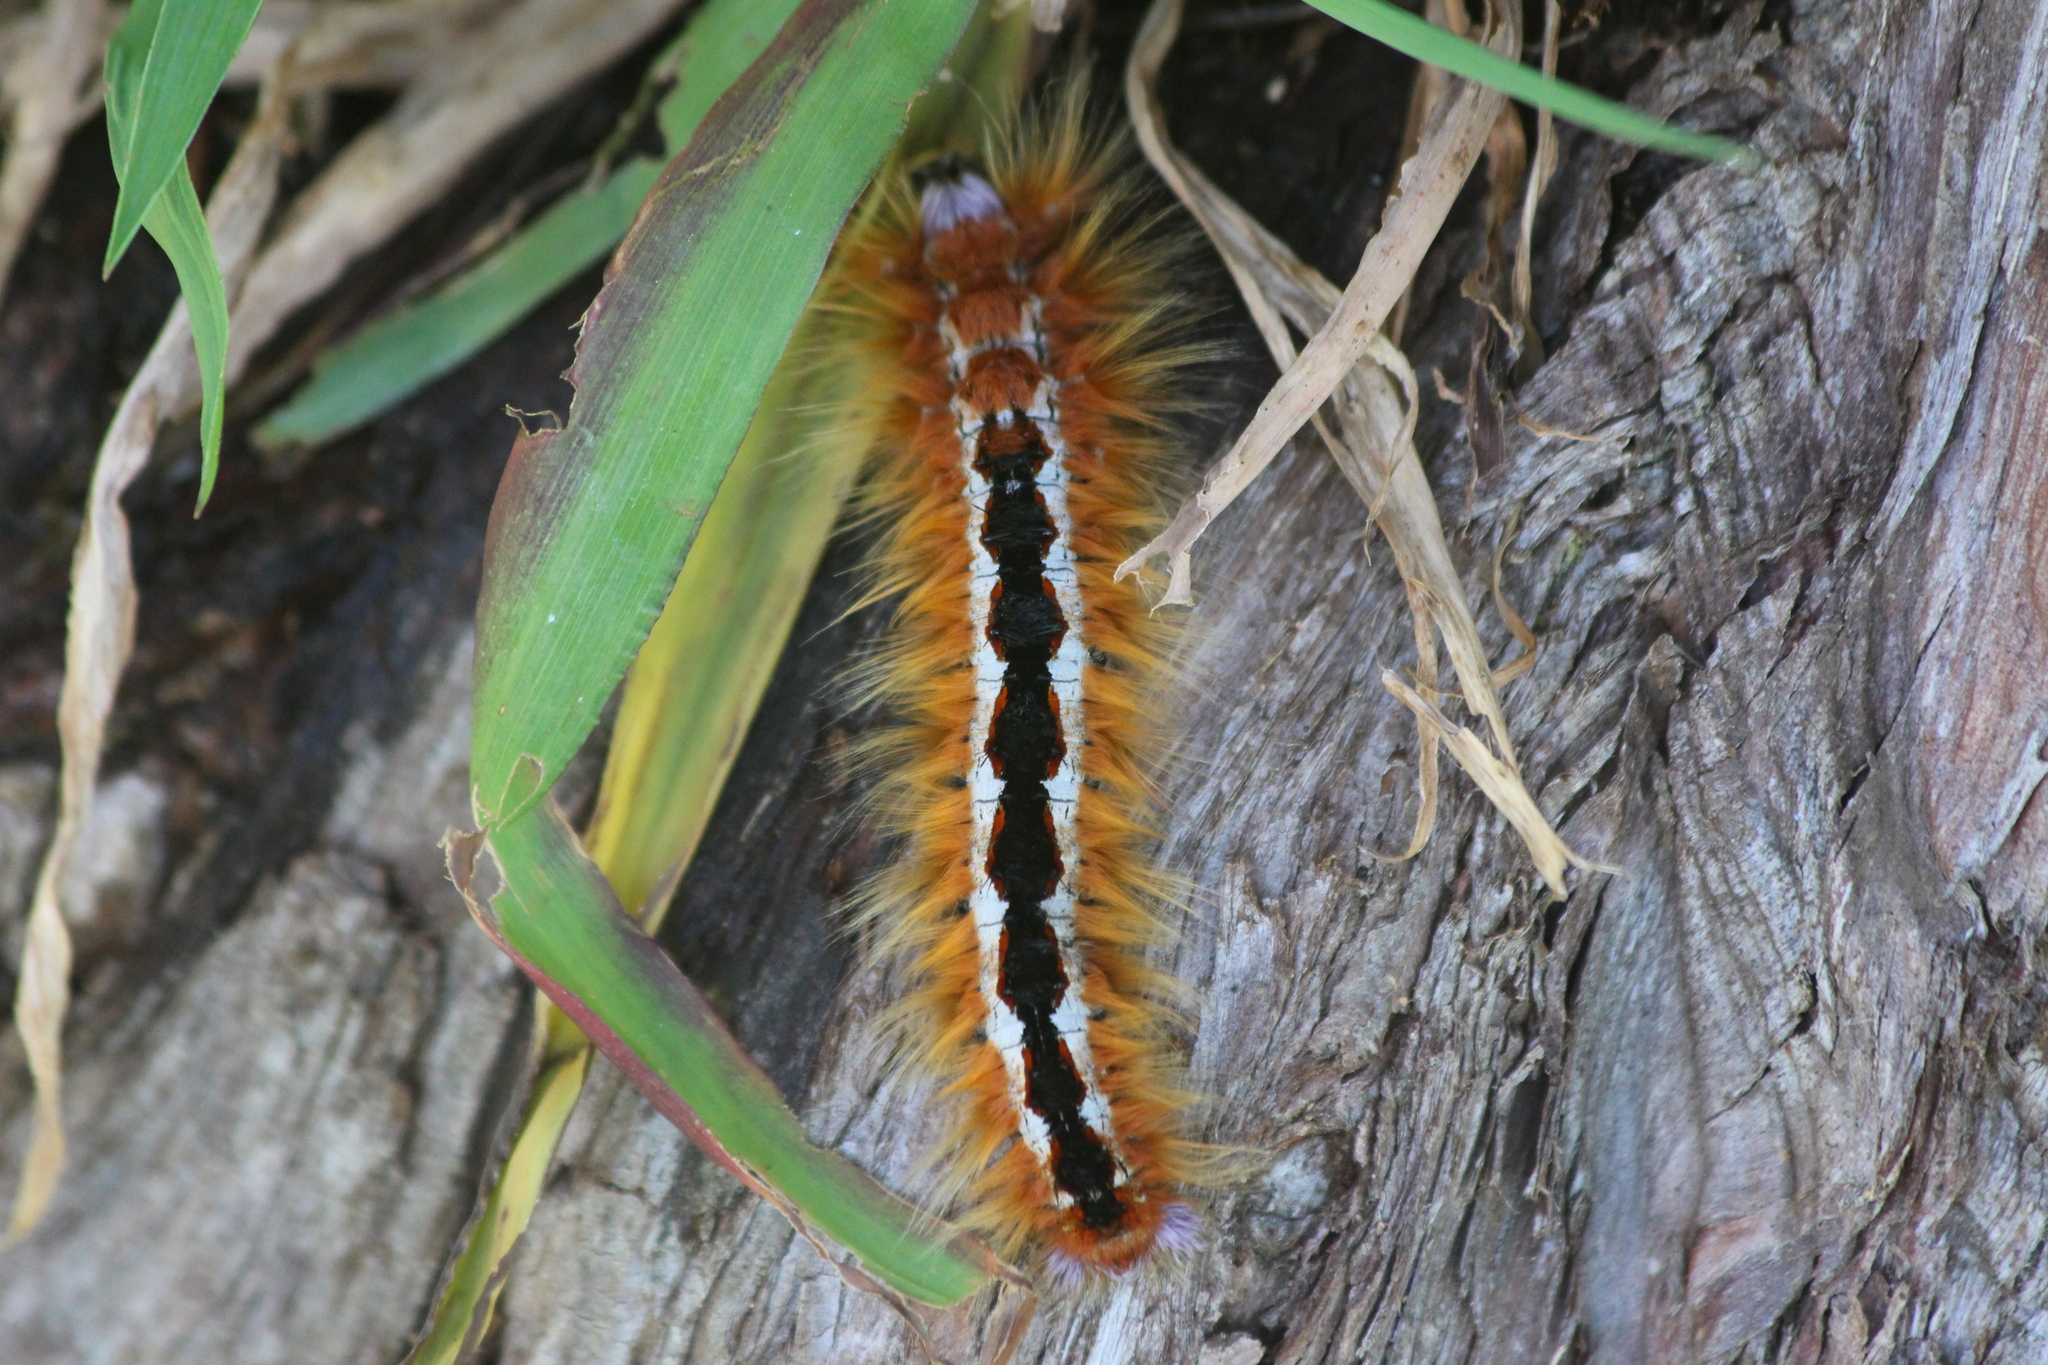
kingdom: Animalia
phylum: Arthropoda
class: Insecta
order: Lepidoptera
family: Lasiocampidae
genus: Eutricha
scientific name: Eutricha capensis
